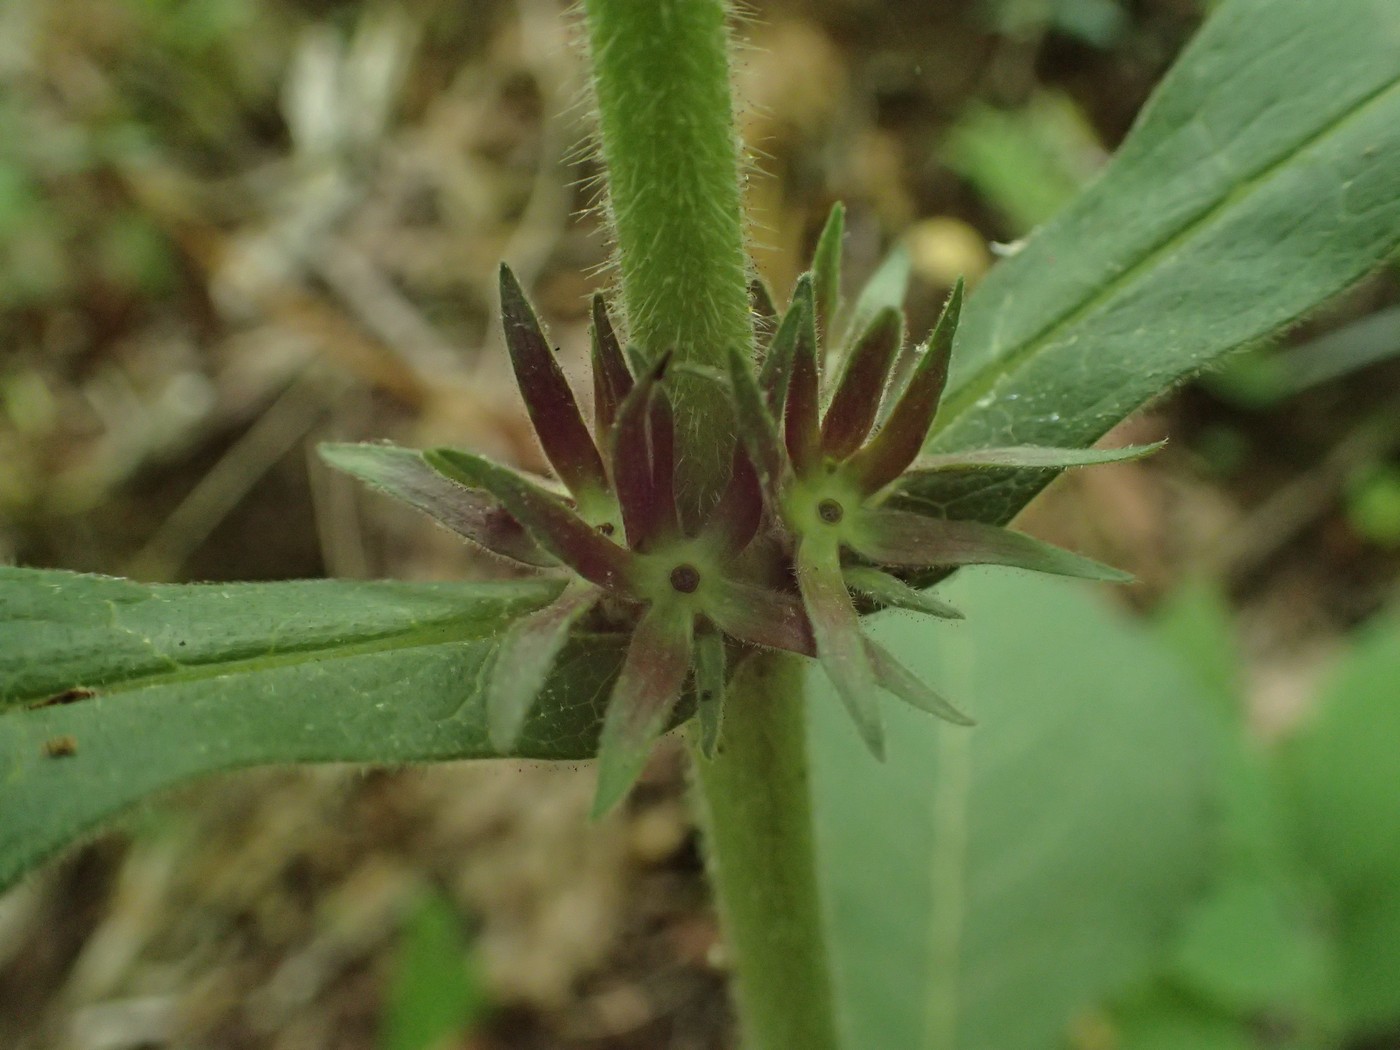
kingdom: Plantae
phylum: Tracheophyta
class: Magnoliopsida
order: Dipsacales
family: Caprifoliaceae
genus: Triosteum
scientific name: Triosteum aurantiacum
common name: Coffee tinker's-weed
